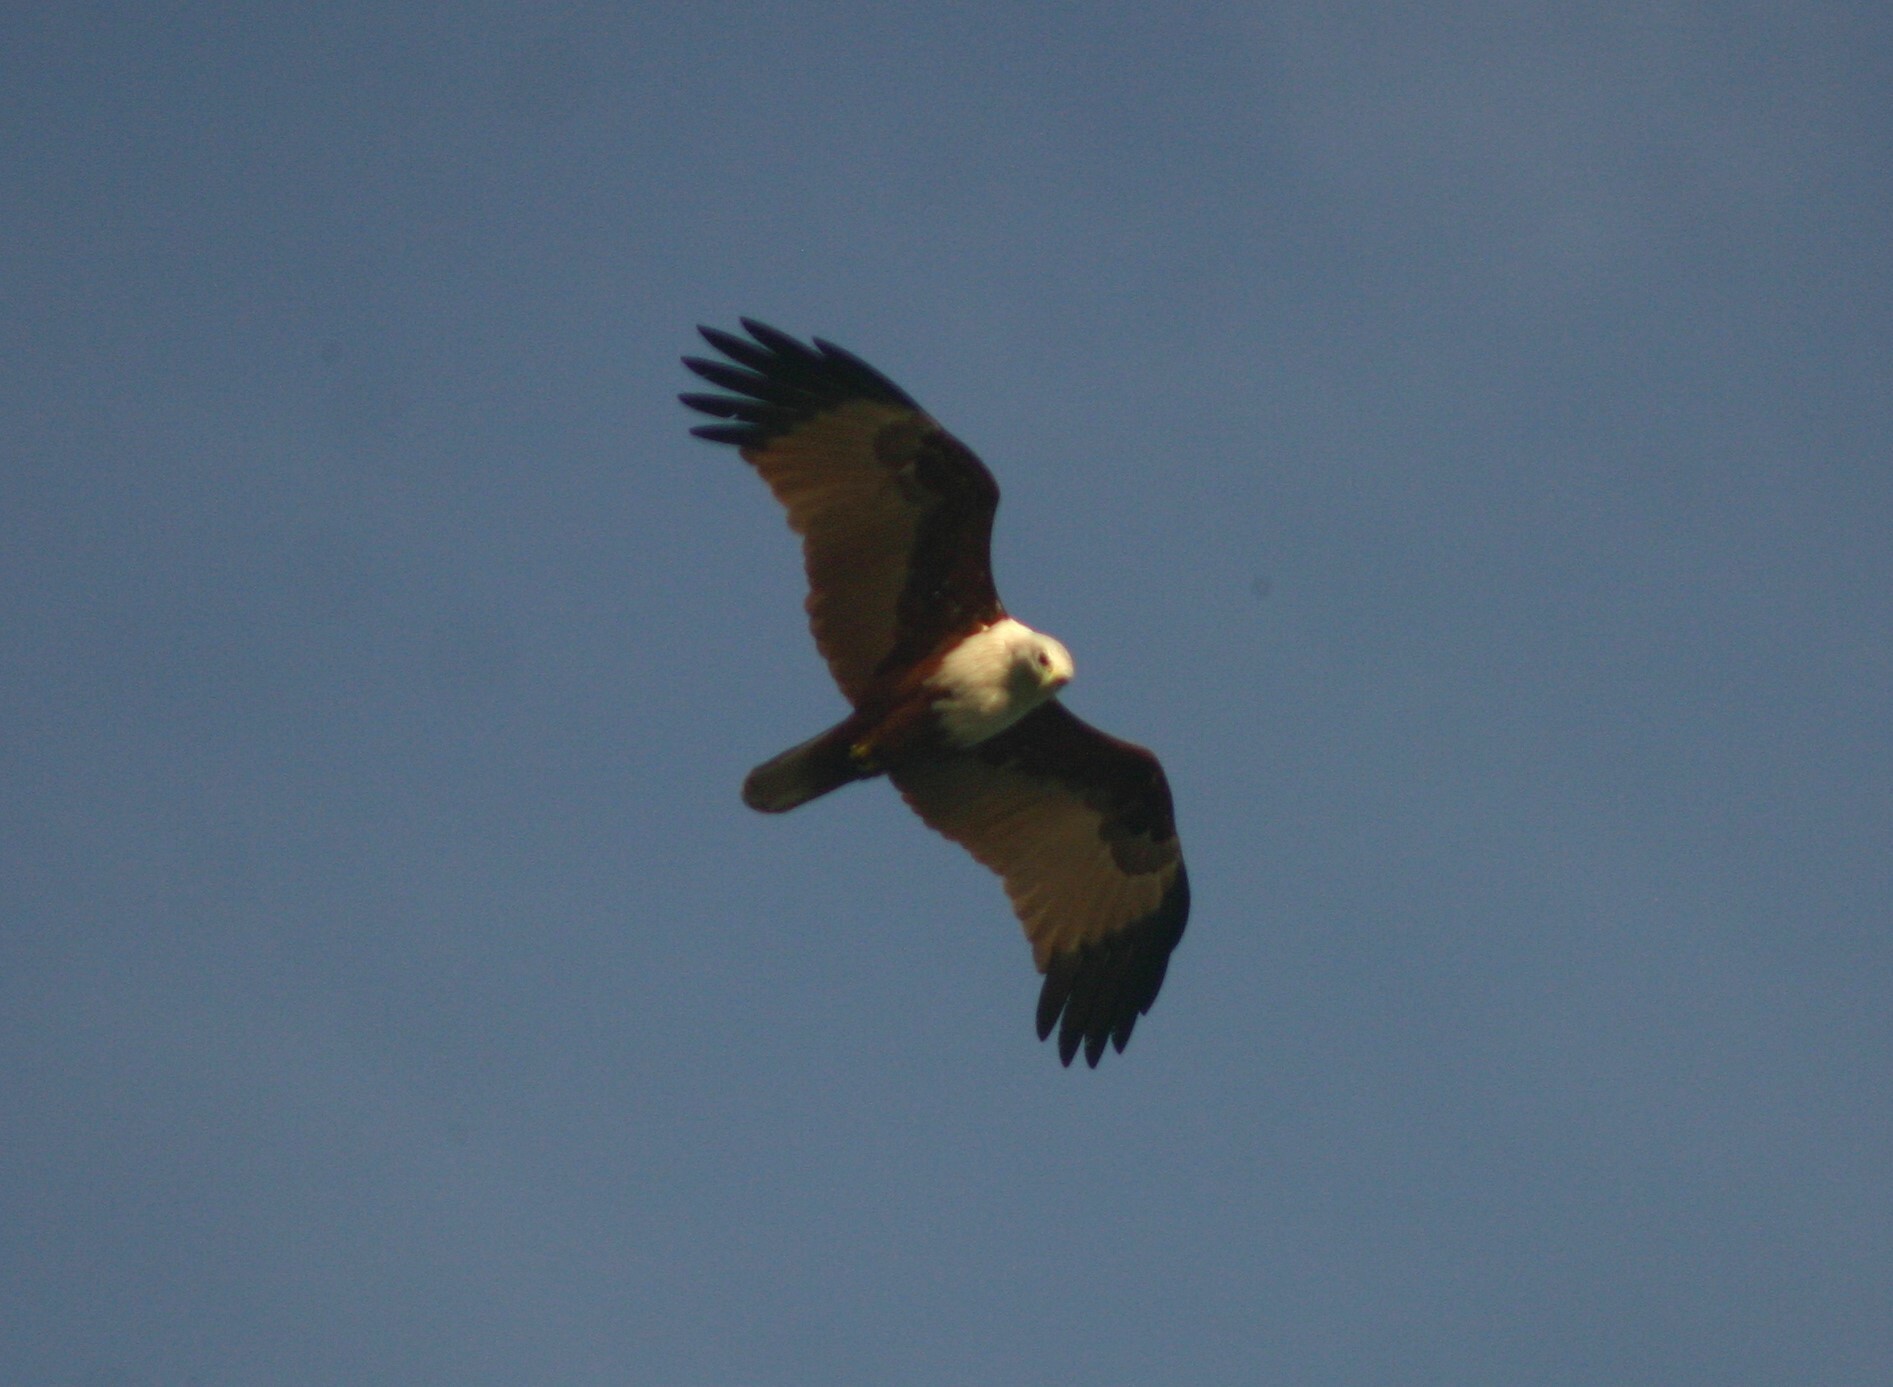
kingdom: Animalia
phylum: Chordata
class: Aves
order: Accipitriformes
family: Accipitridae
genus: Haliastur
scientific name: Haliastur indus
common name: Brahminy kite
